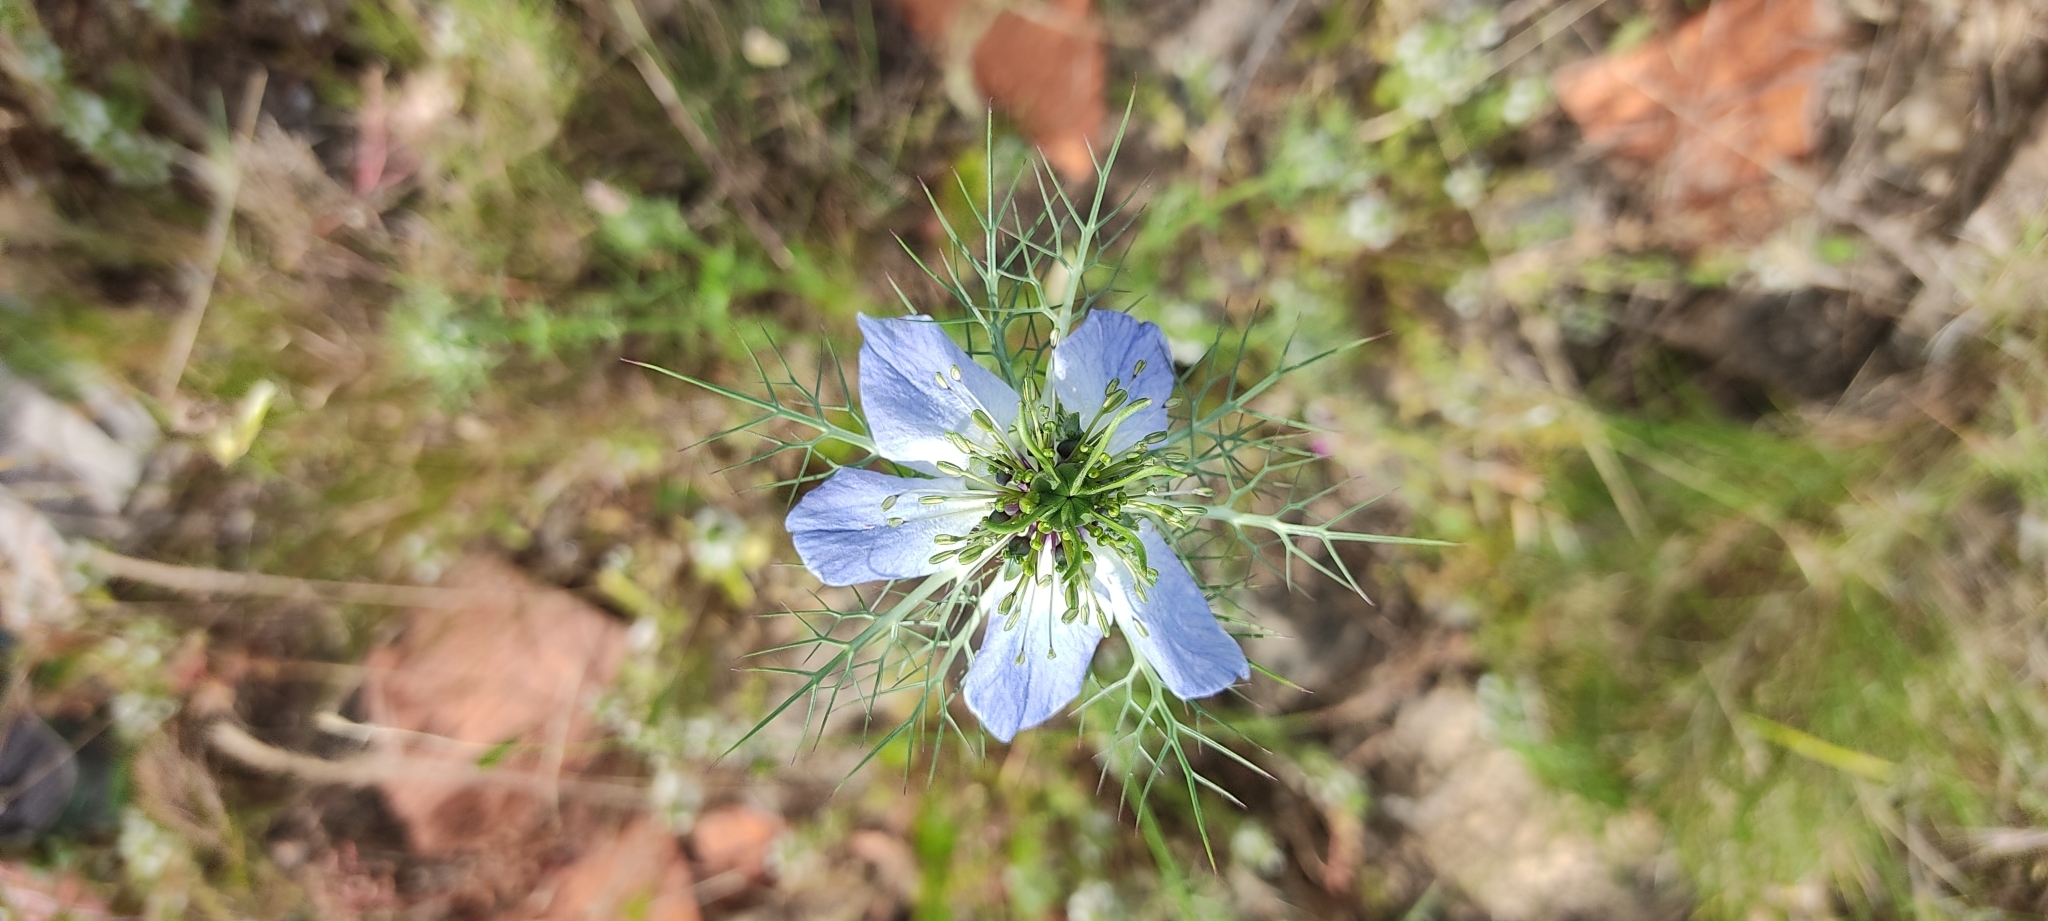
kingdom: Plantae
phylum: Tracheophyta
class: Magnoliopsida
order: Ranunculales
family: Ranunculaceae
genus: Nigella
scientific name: Nigella damascena
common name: Love-in-a-mist
